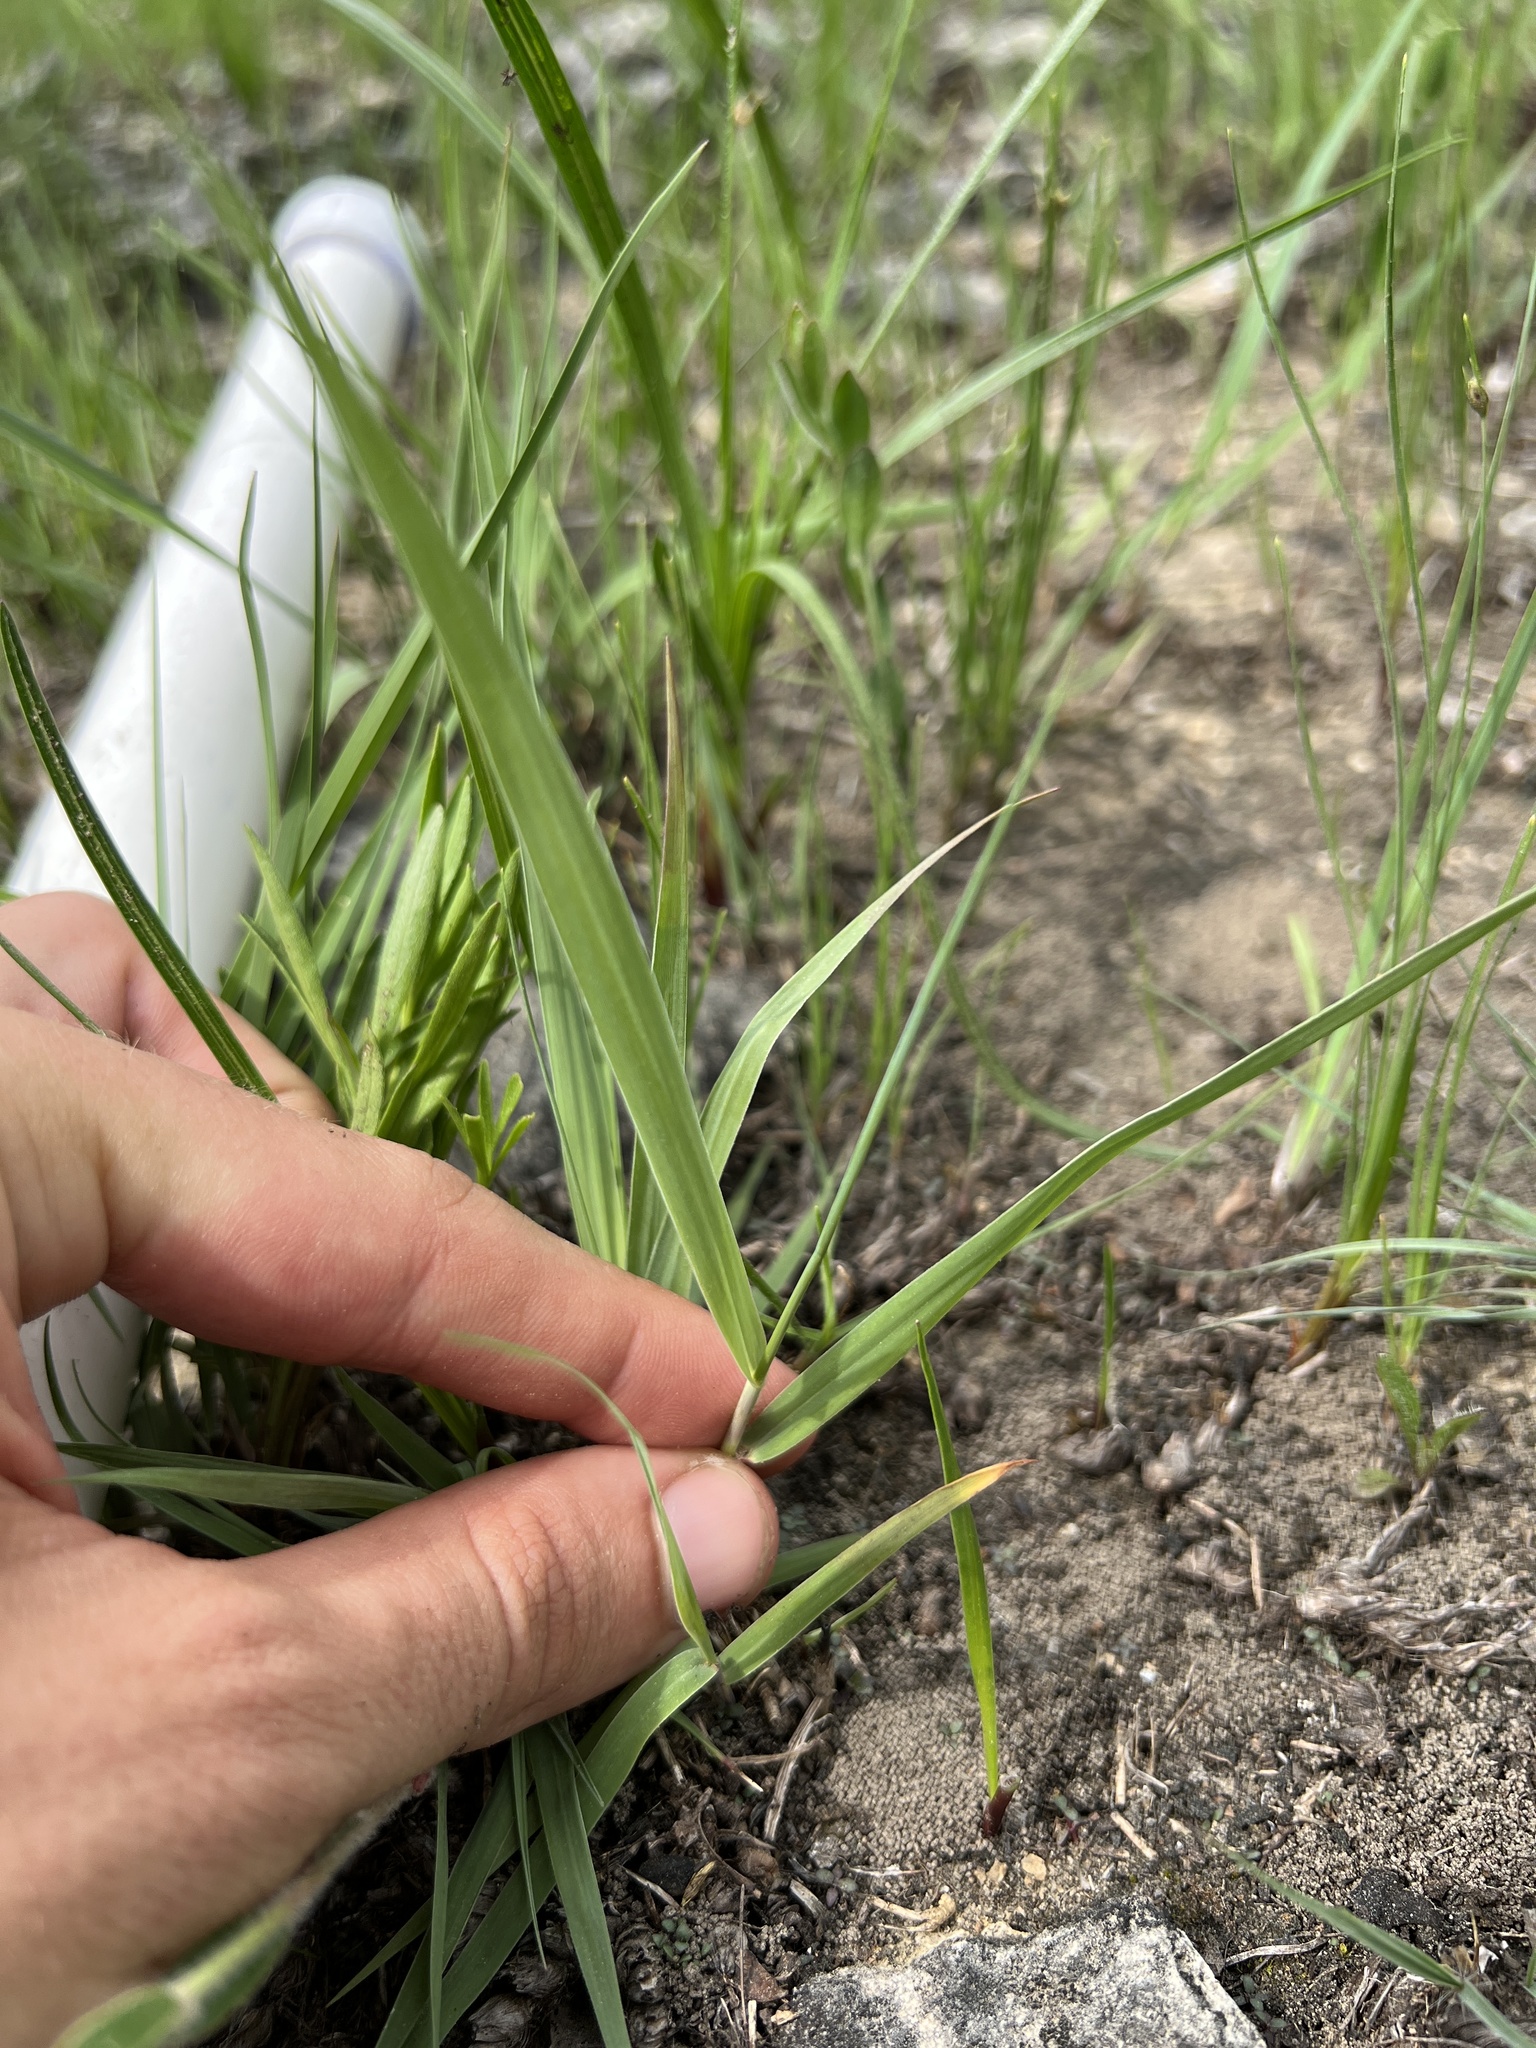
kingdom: Plantae
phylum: Tracheophyta
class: Liliopsida
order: Poales
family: Poaceae
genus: Panicum
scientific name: Panicum virgatum
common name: Switchgrass
